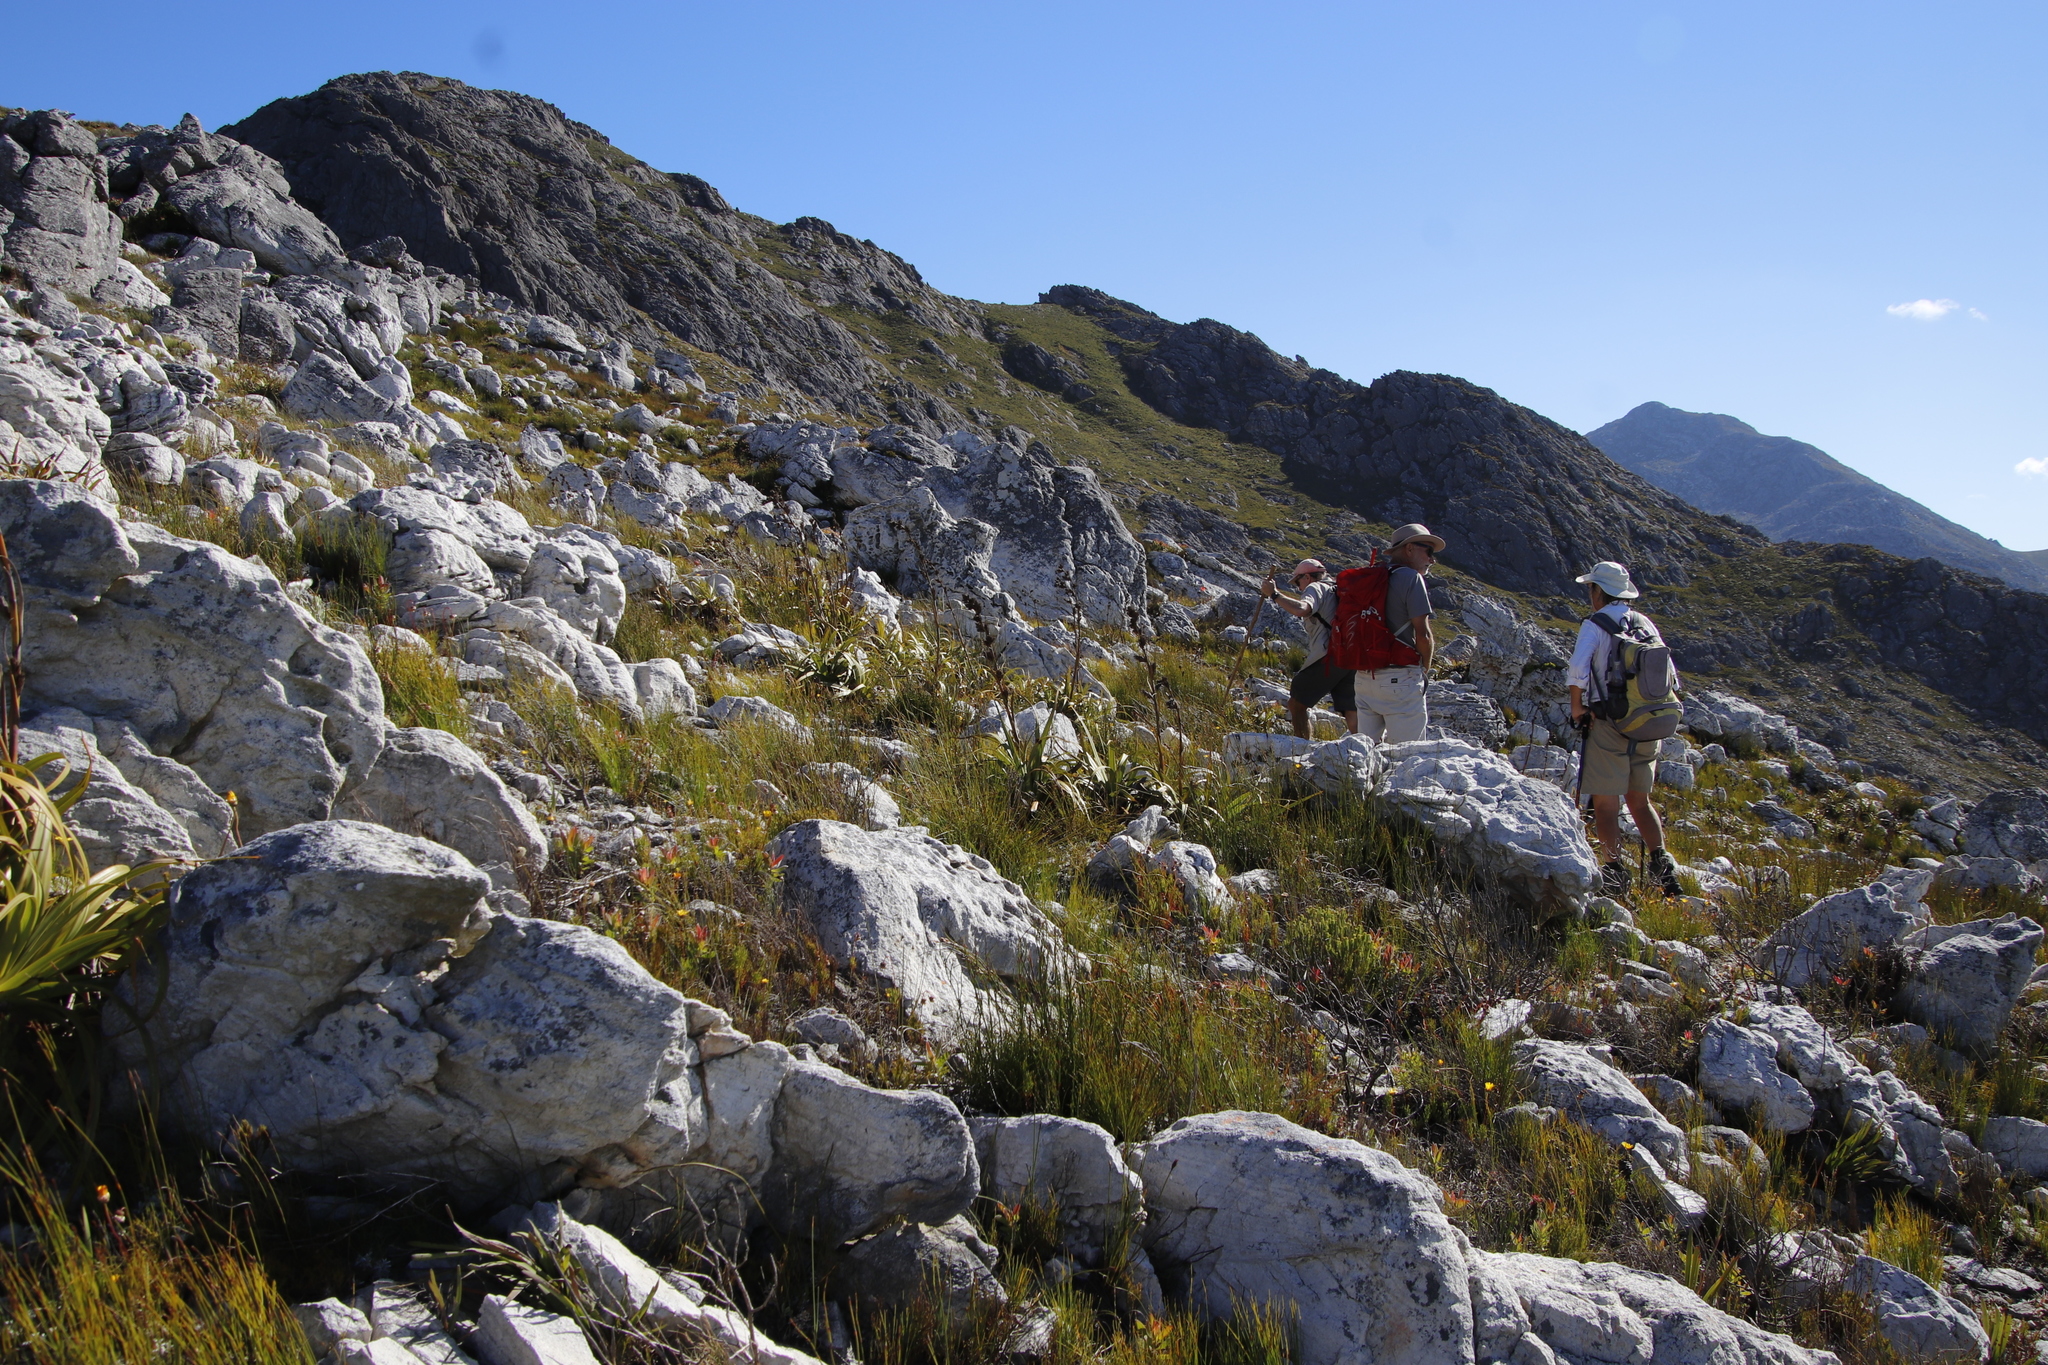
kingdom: Plantae
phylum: Tracheophyta
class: Liliopsida
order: Poales
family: Cyperaceae
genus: Tetraria
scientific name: Tetraria thermalis
